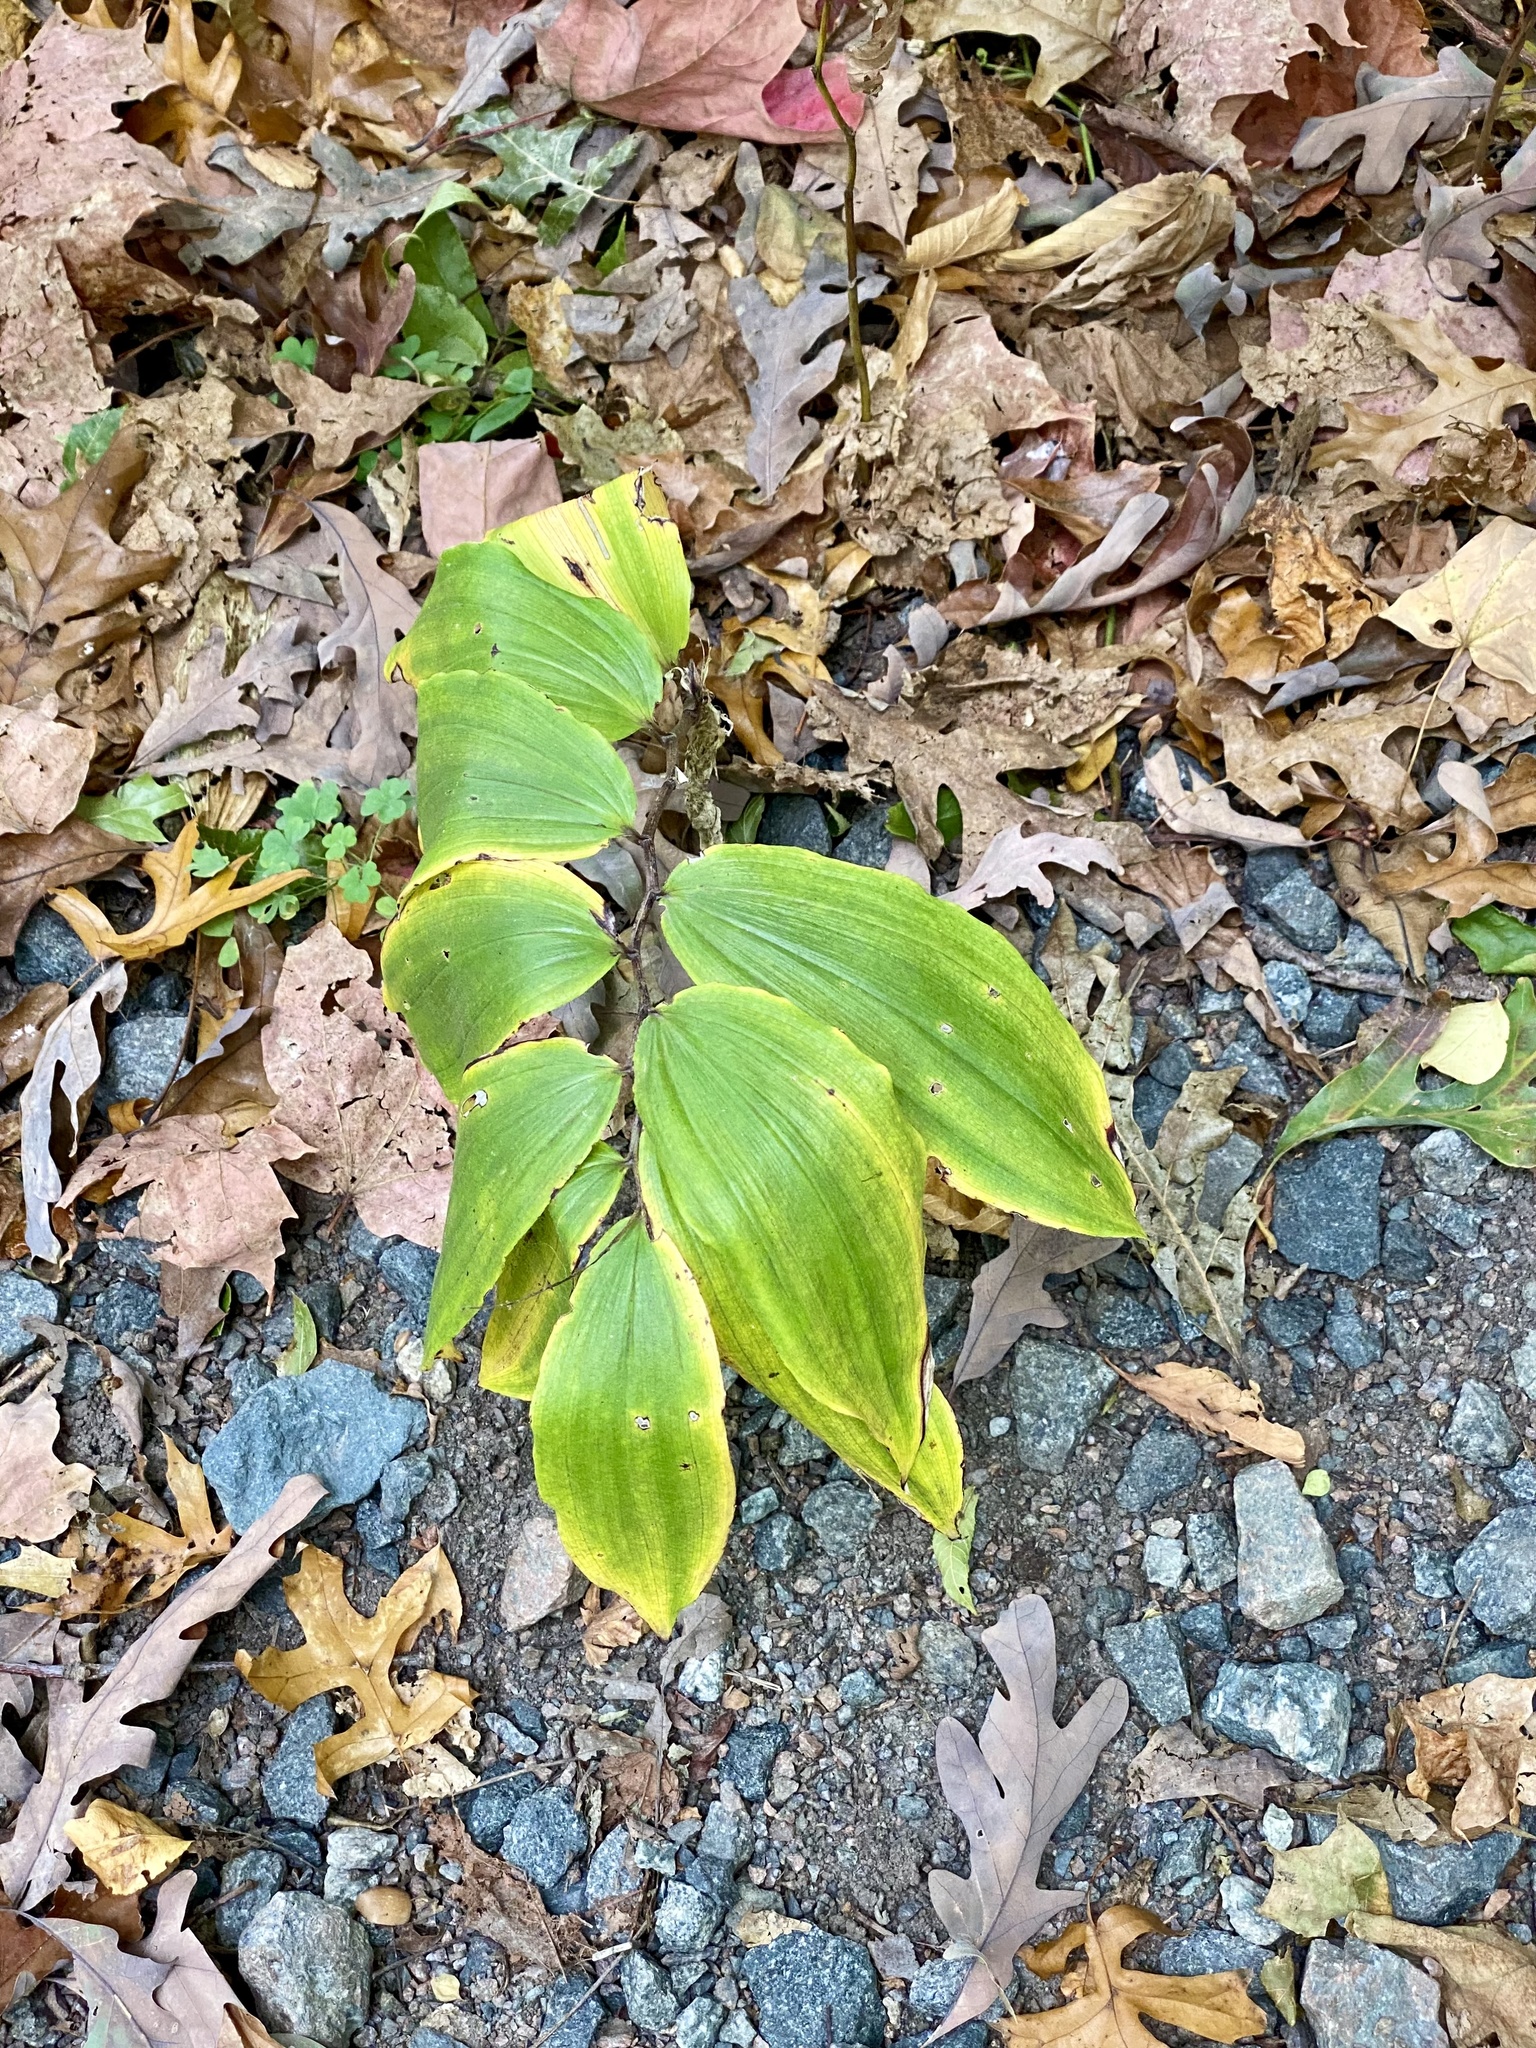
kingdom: Plantae
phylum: Tracheophyta
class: Liliopsida
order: Asparagales
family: Asparagaceae
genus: Maianthemum
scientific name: Maianthemum racemosum
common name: False spikenard
